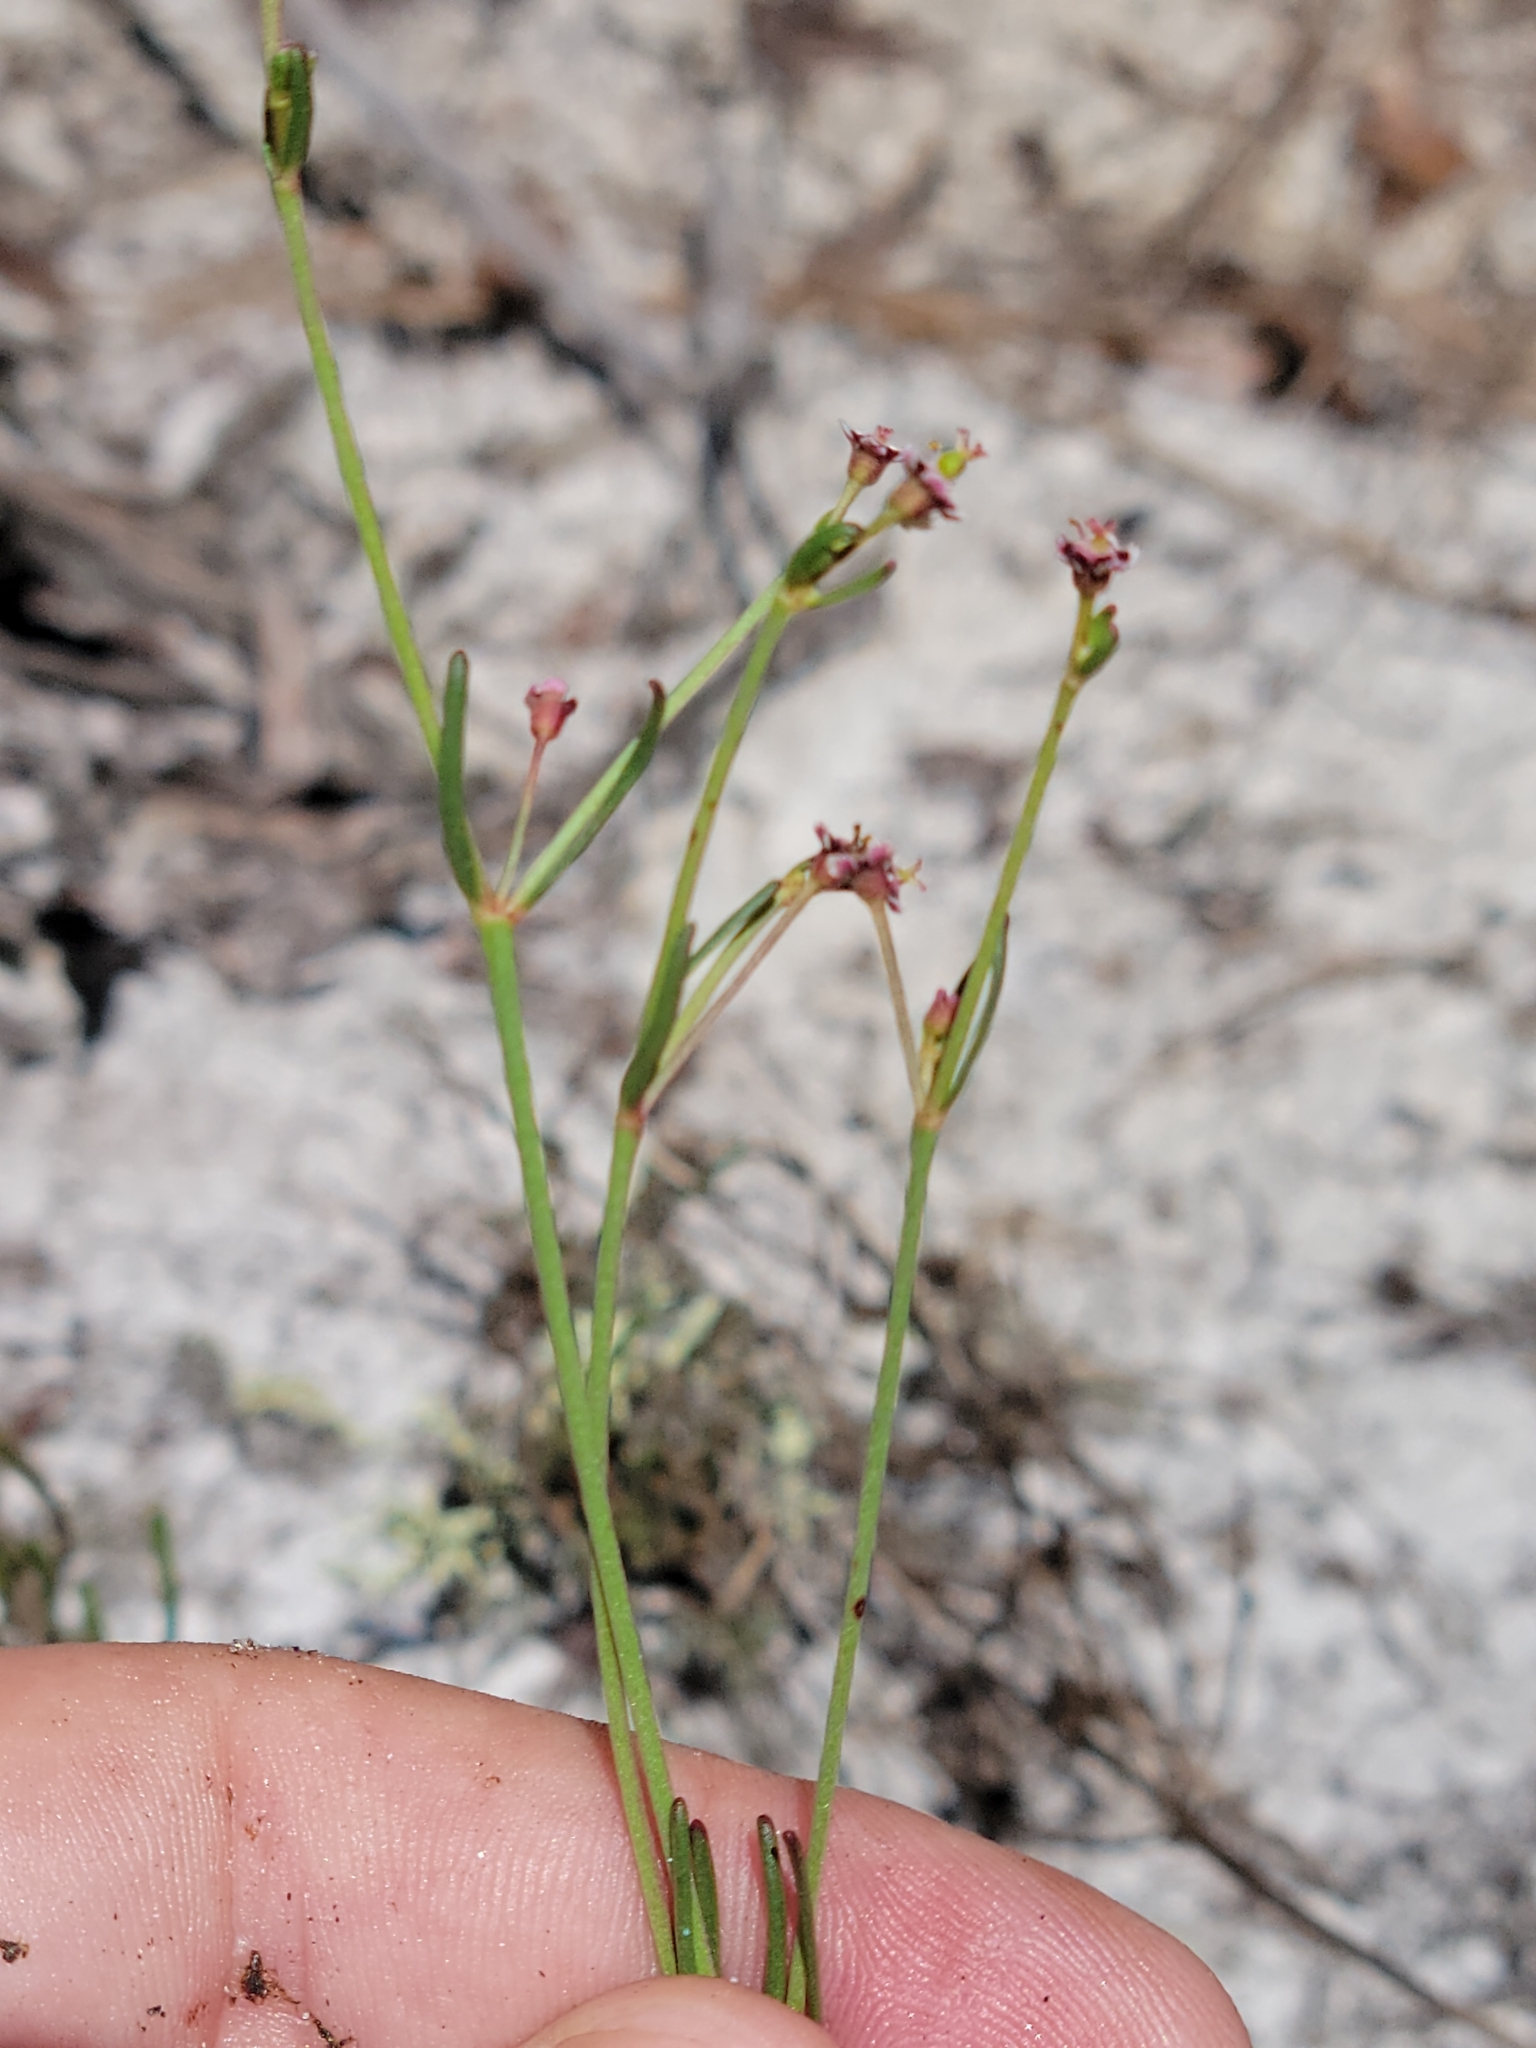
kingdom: Plantae
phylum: Tracheophyta
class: Magnoliopsida
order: Malpighiales
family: Euphorbiaceae
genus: Euphorbia
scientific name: Euphorbia polyphylla
